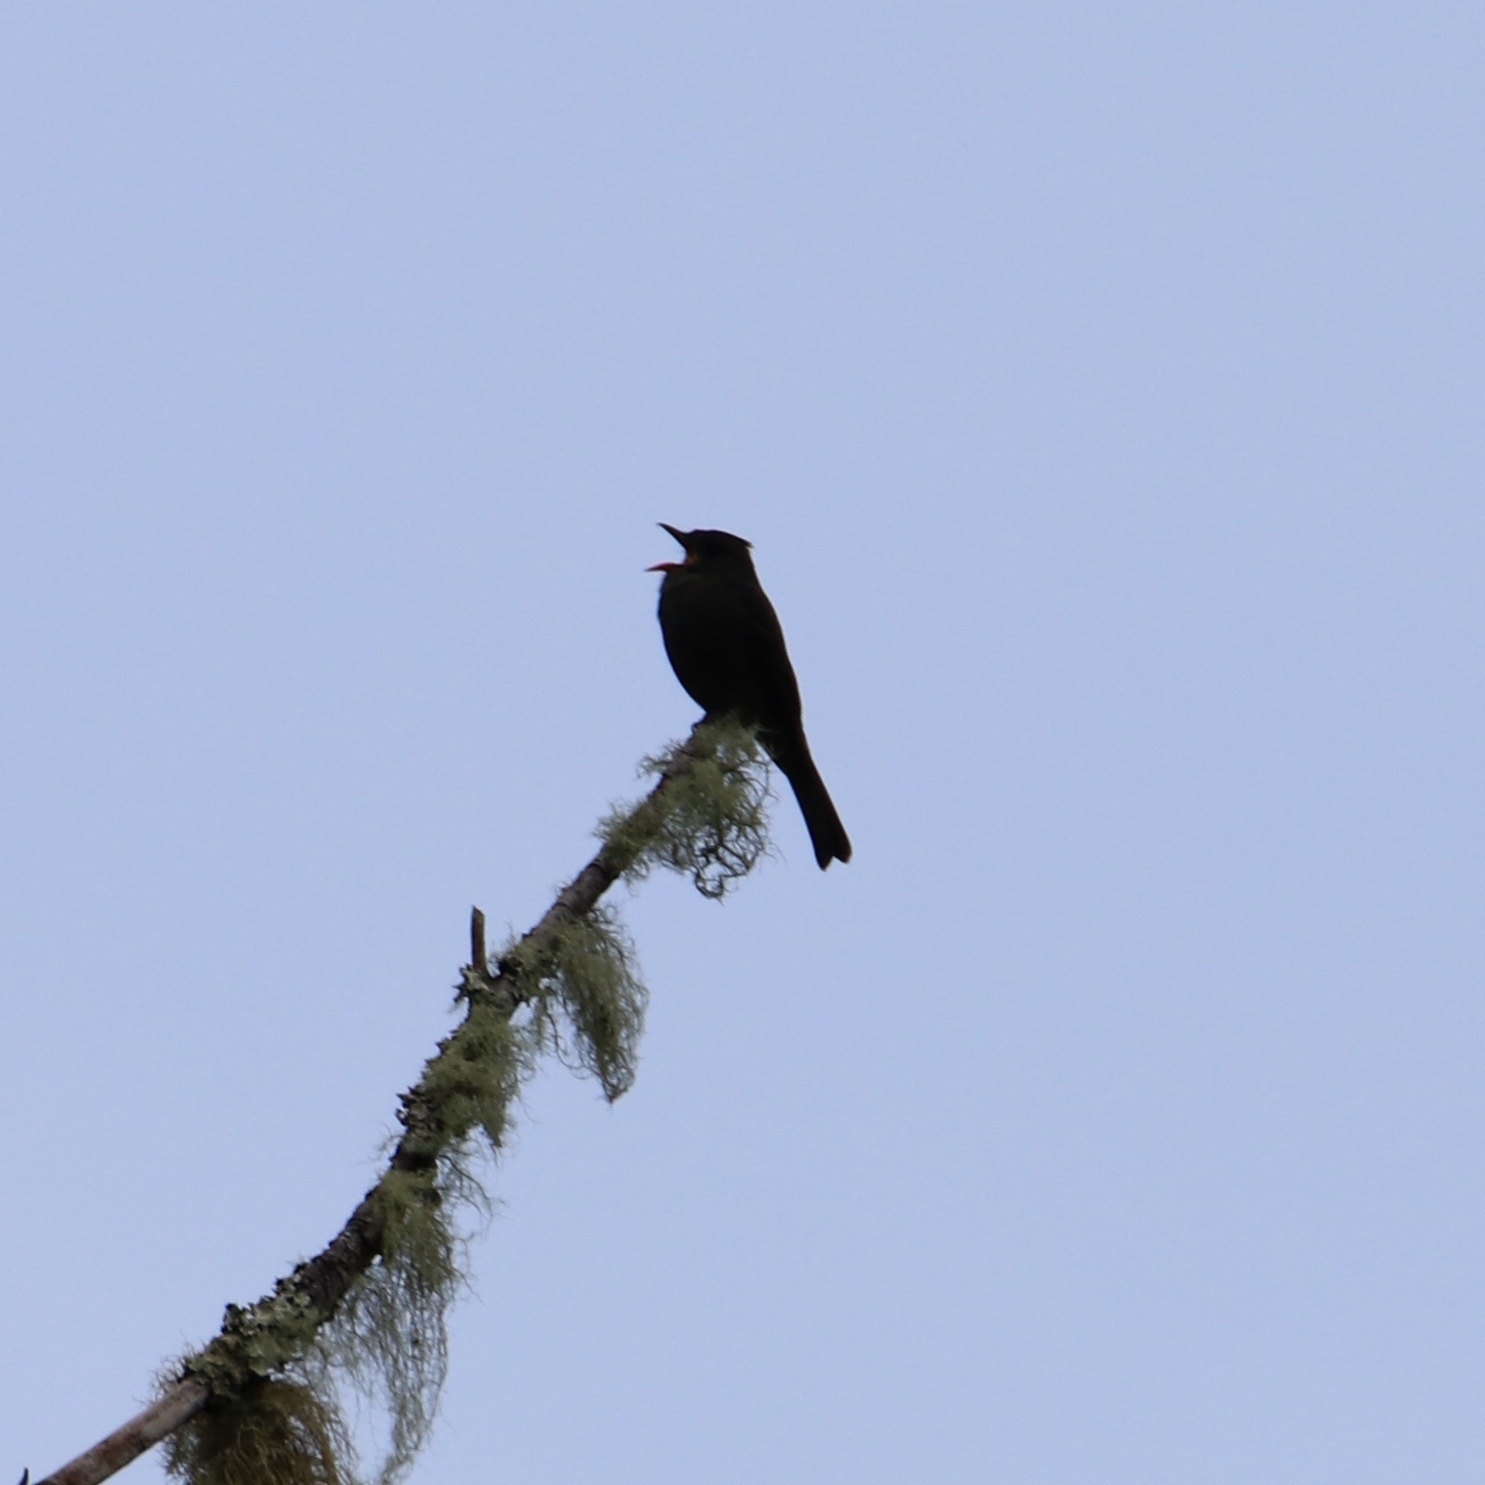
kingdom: Animalia
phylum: Chordata
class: Aves
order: Passeriformes
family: Tyrannidae
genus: Contopus
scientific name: Contopus lugubris
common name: Dark pewee
